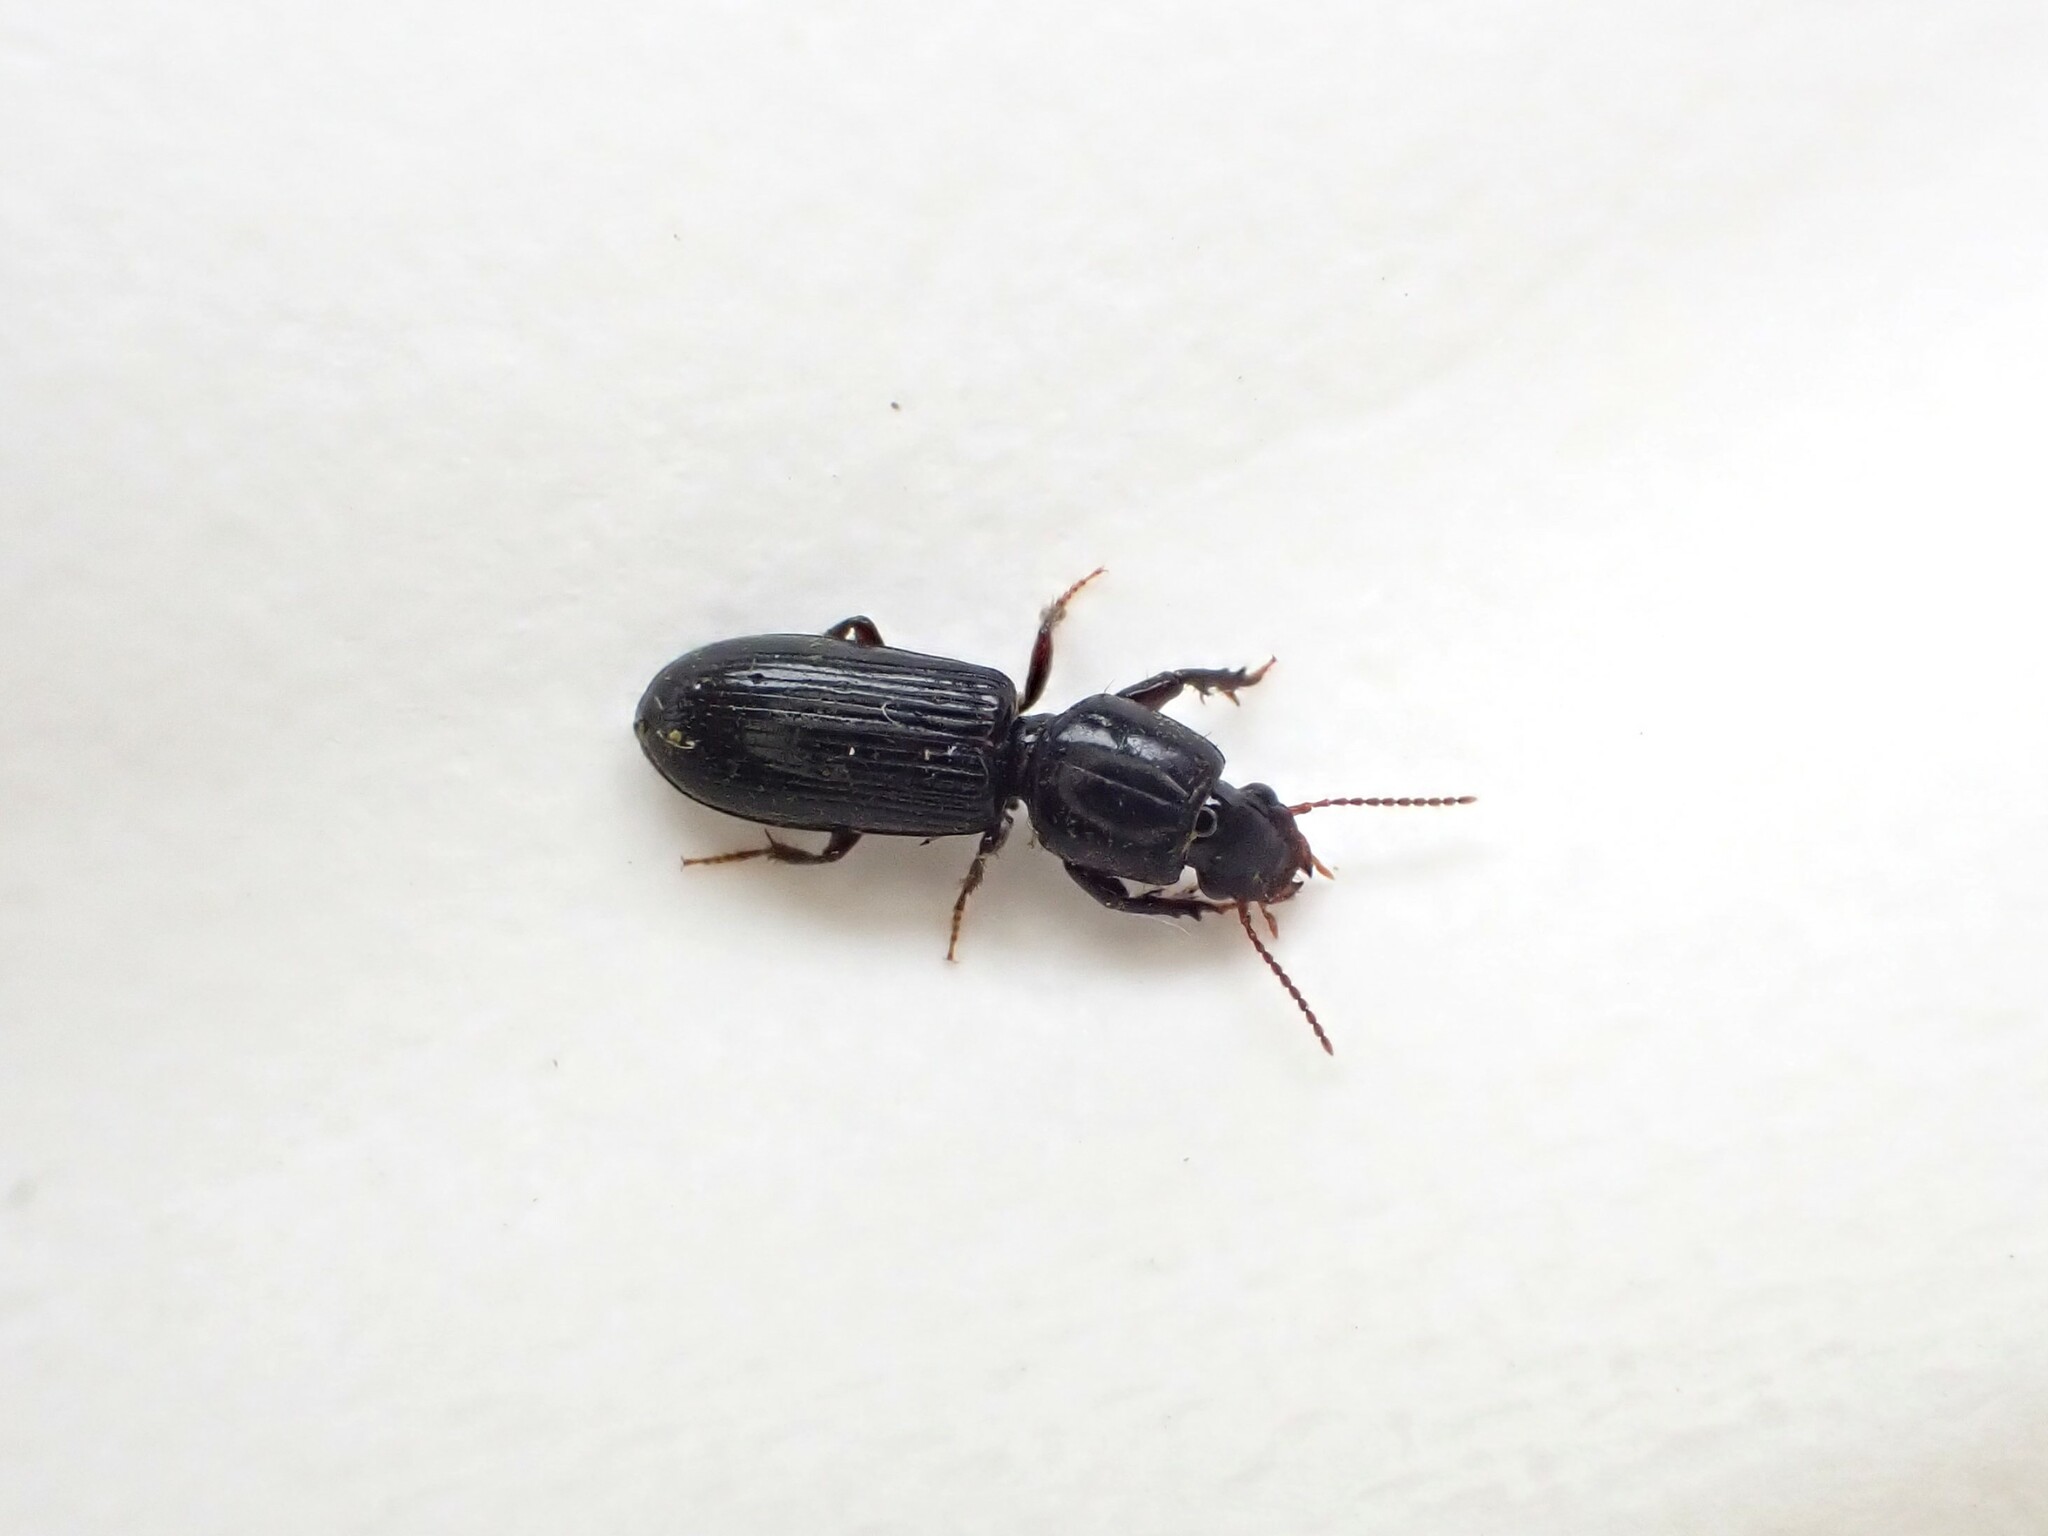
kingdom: Animalia
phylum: Arthropoda
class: Insecta
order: Coleoptera
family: Carabidae
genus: Clivina
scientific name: Clivina vagans
